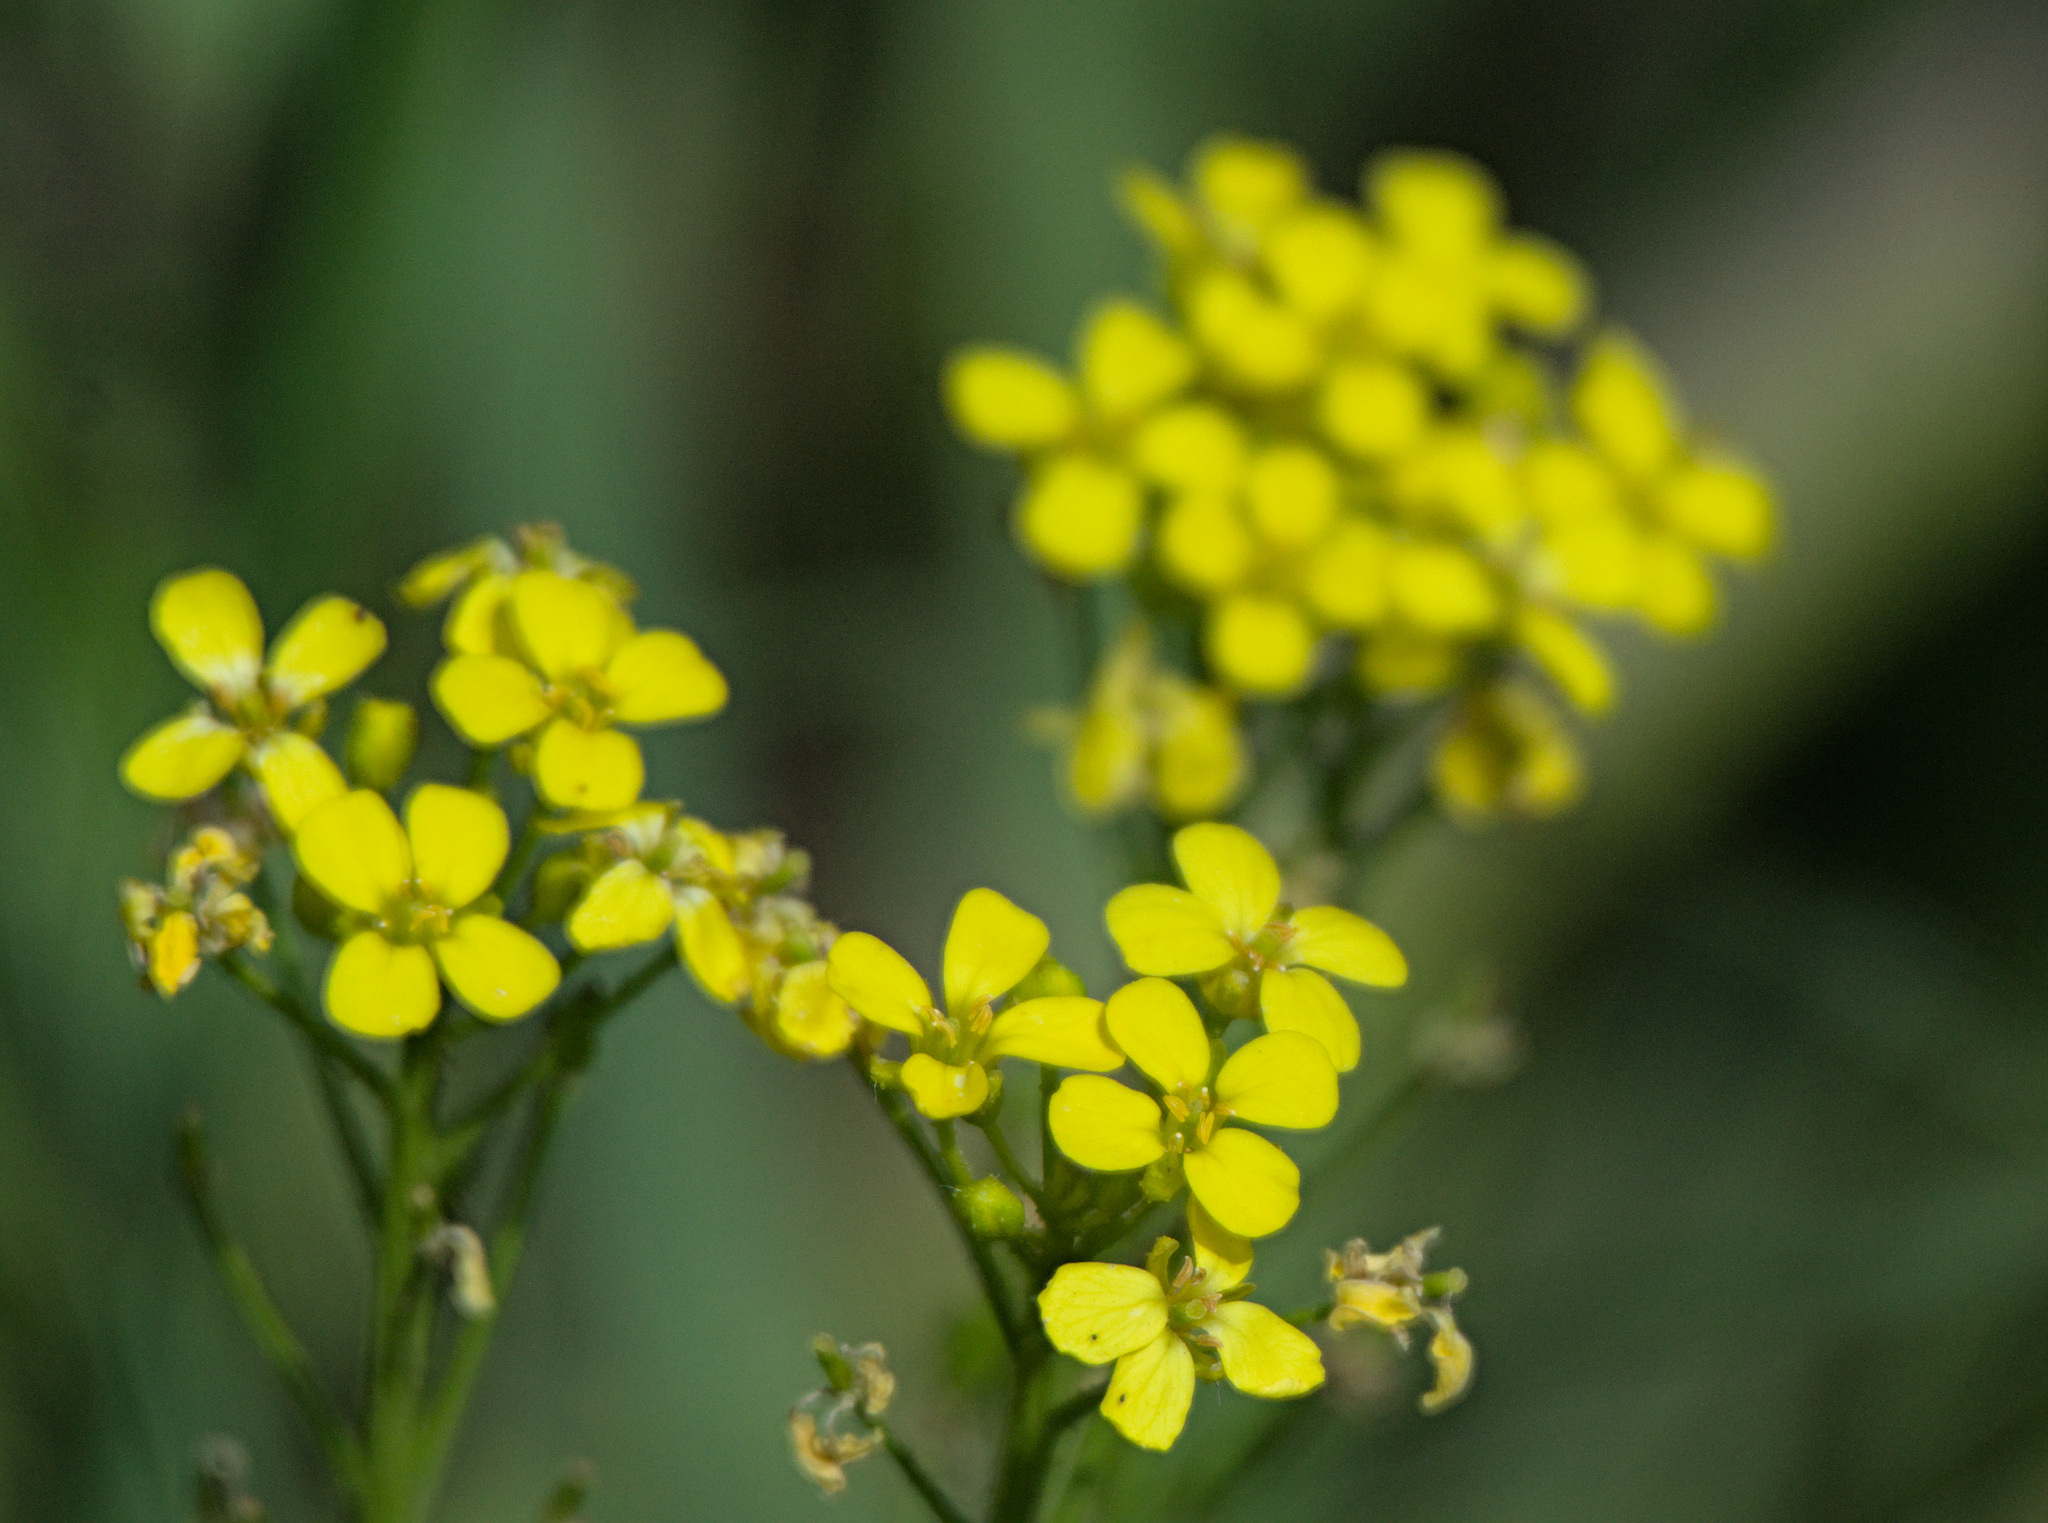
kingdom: Plantae
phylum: Tracheophyta
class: Magnoliopsida
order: Brassicales
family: Brassicaceae
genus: Bunias
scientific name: Bunias orientalis
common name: Warty-cabbage
